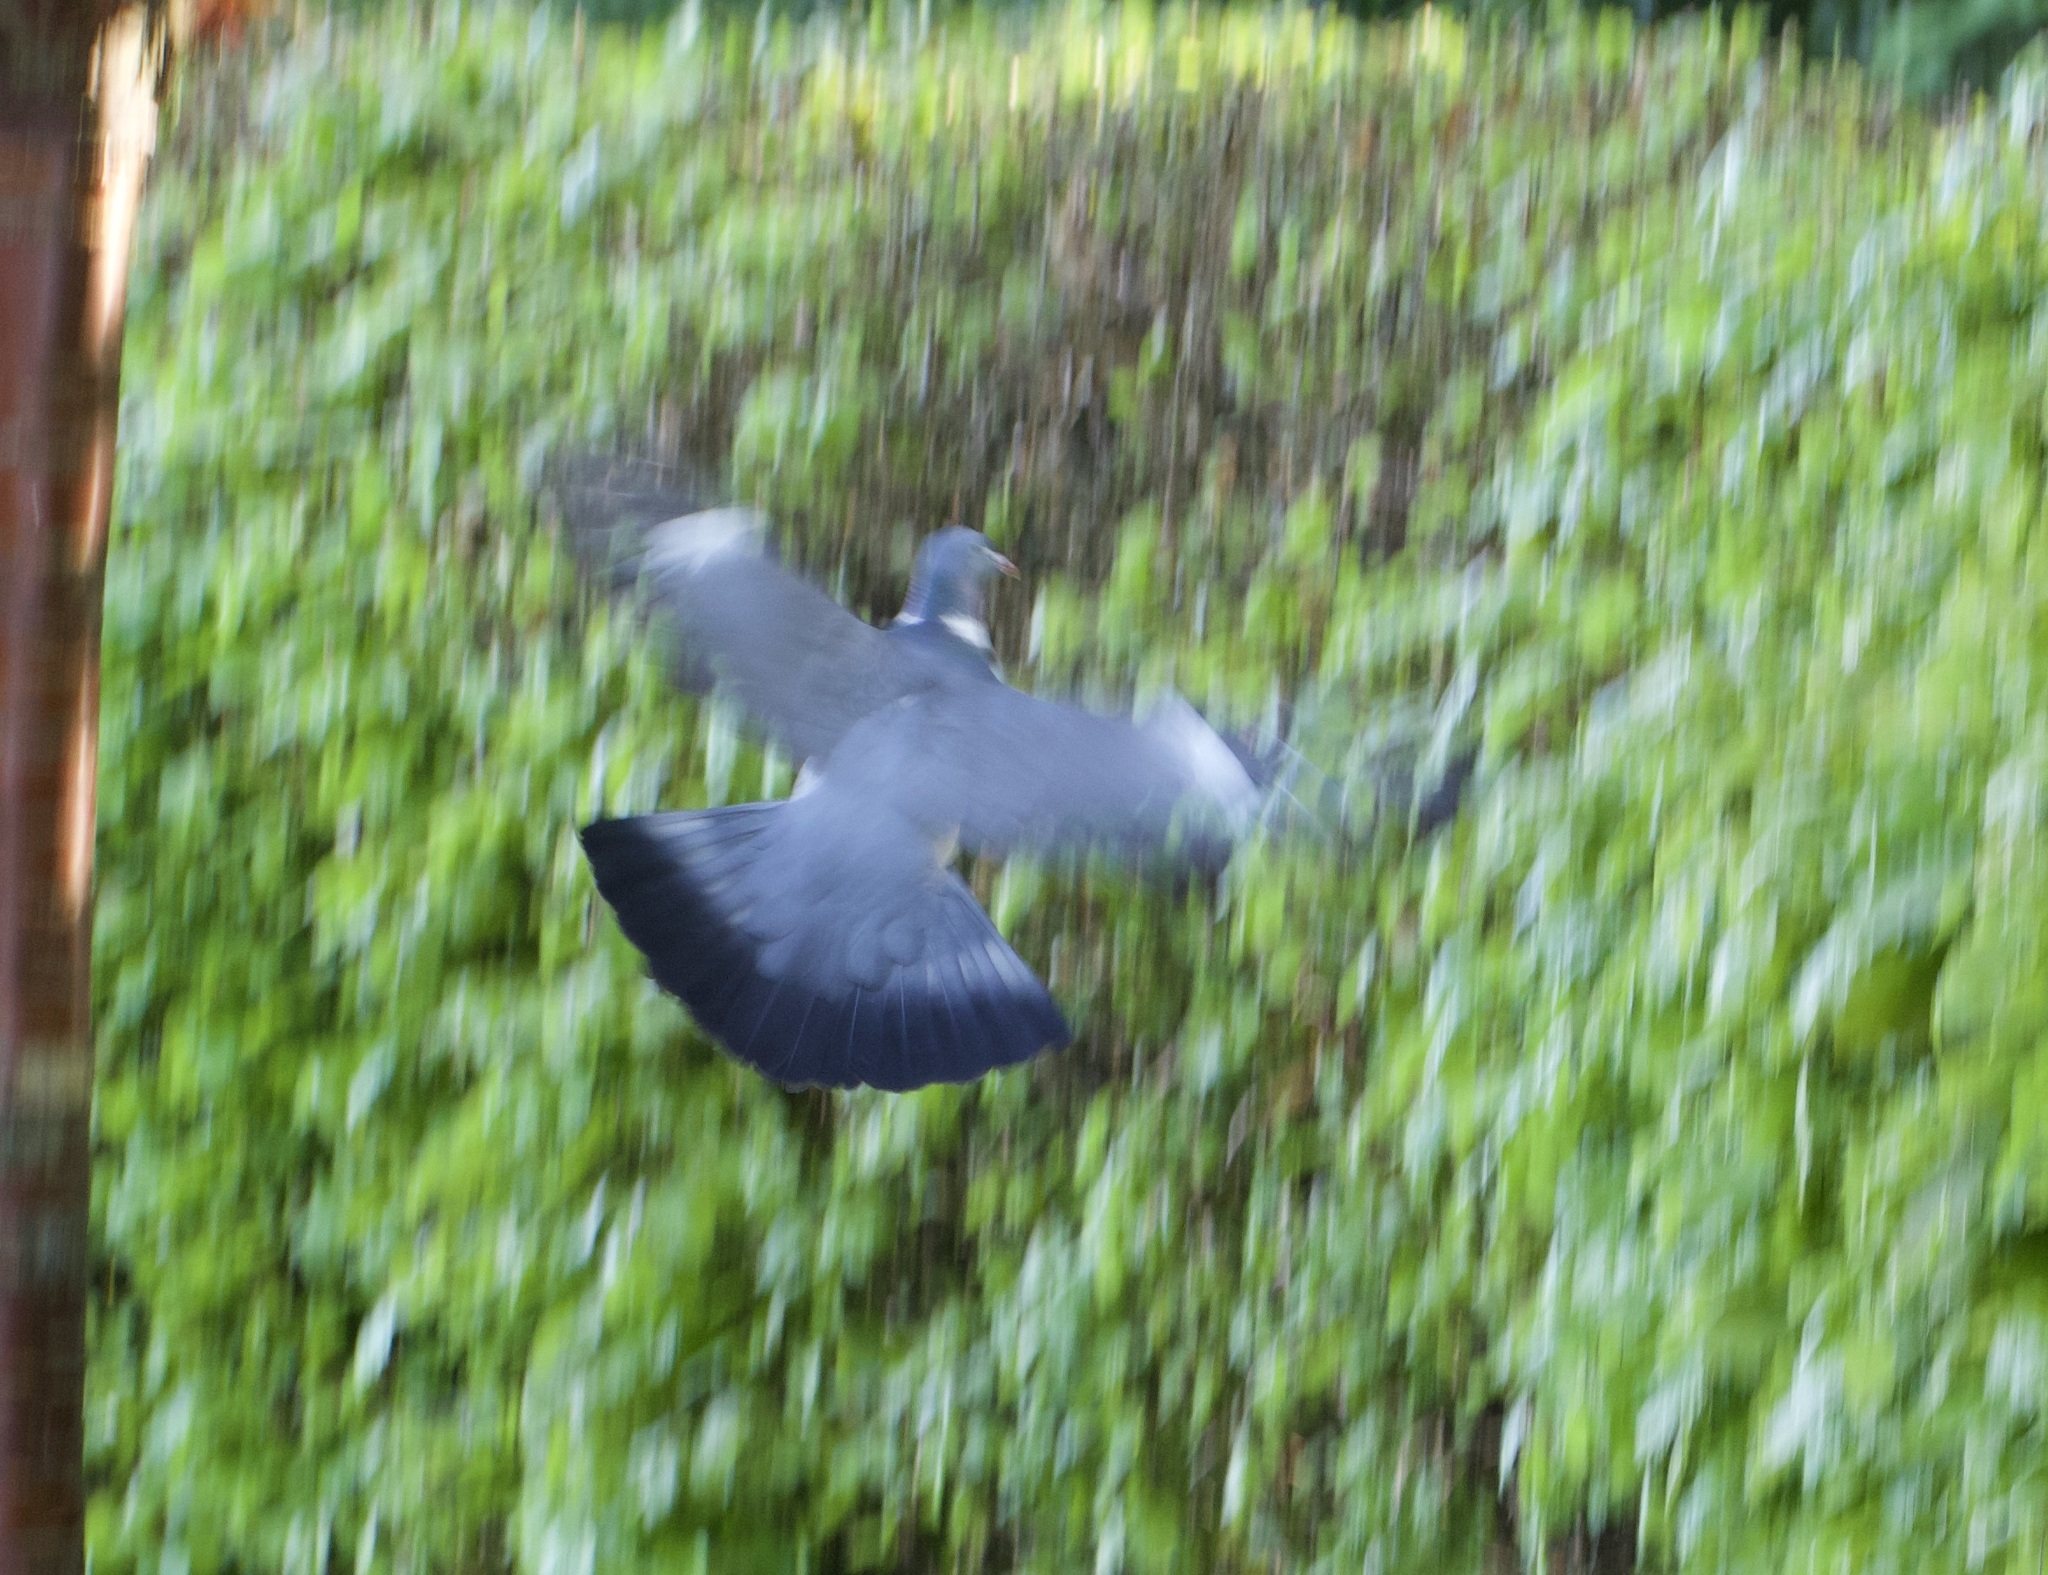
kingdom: Animalia
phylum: Chordata
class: Aves
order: Columbiformes
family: Columbidae
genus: Columba
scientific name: Columba palumbus
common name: Common wood pigeon
